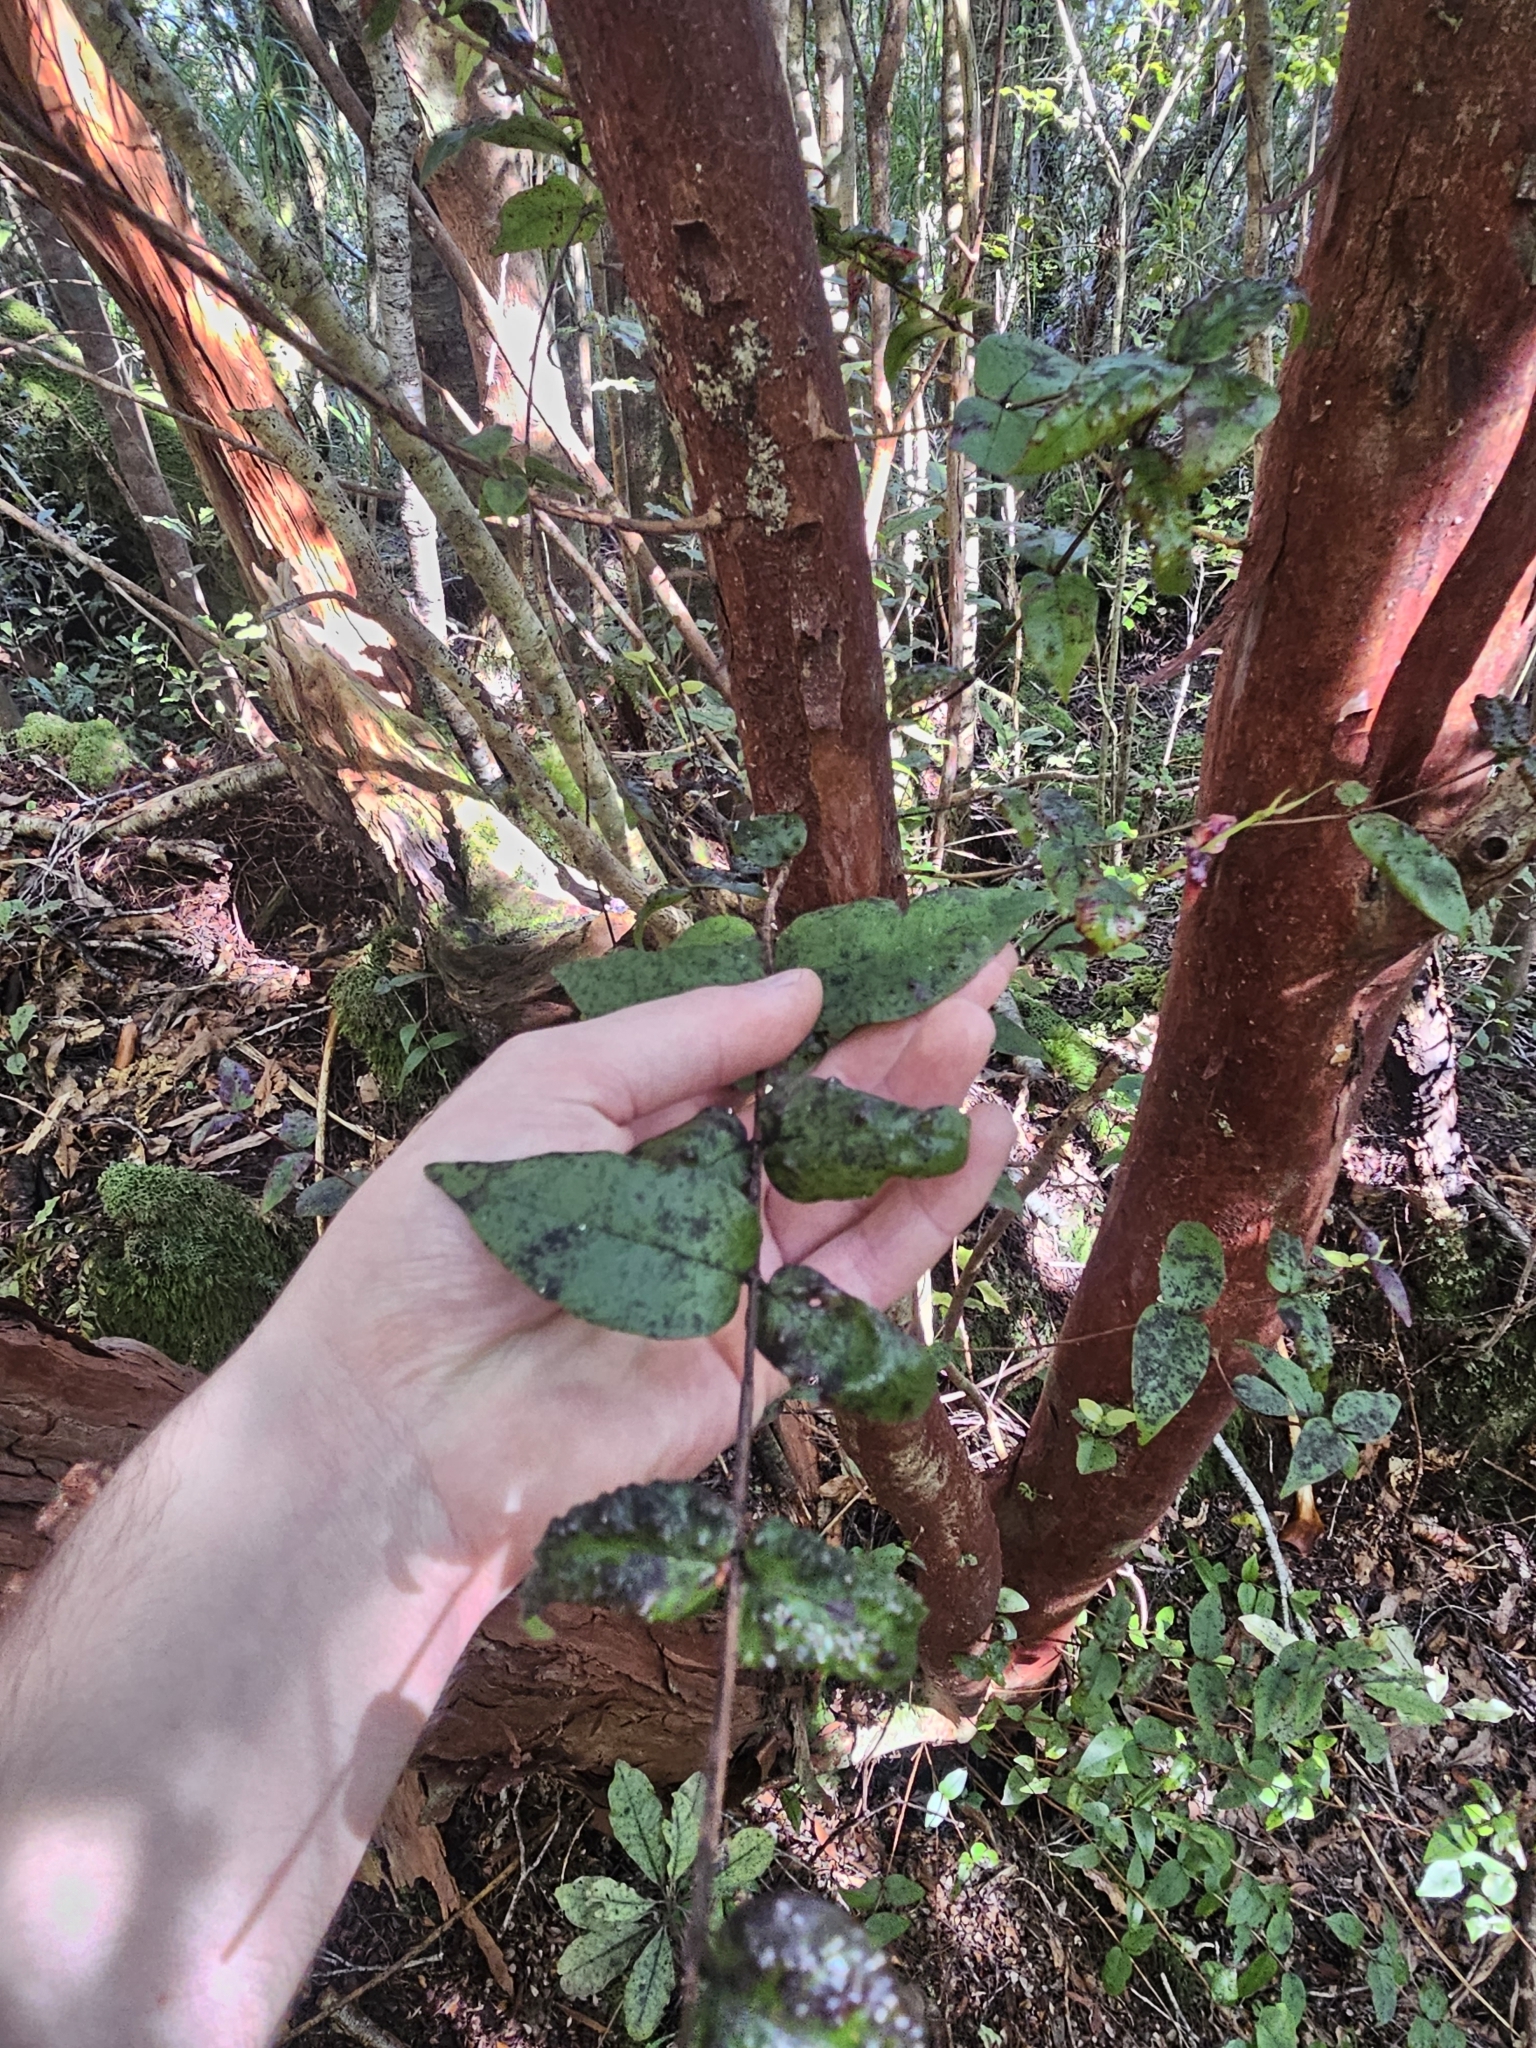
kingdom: Plantae
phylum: Tracheophyta
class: Magnoliopsida
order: Myrtales
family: Myrtaceae
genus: Metrosideros
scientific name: Metrosideros parkinsonii
